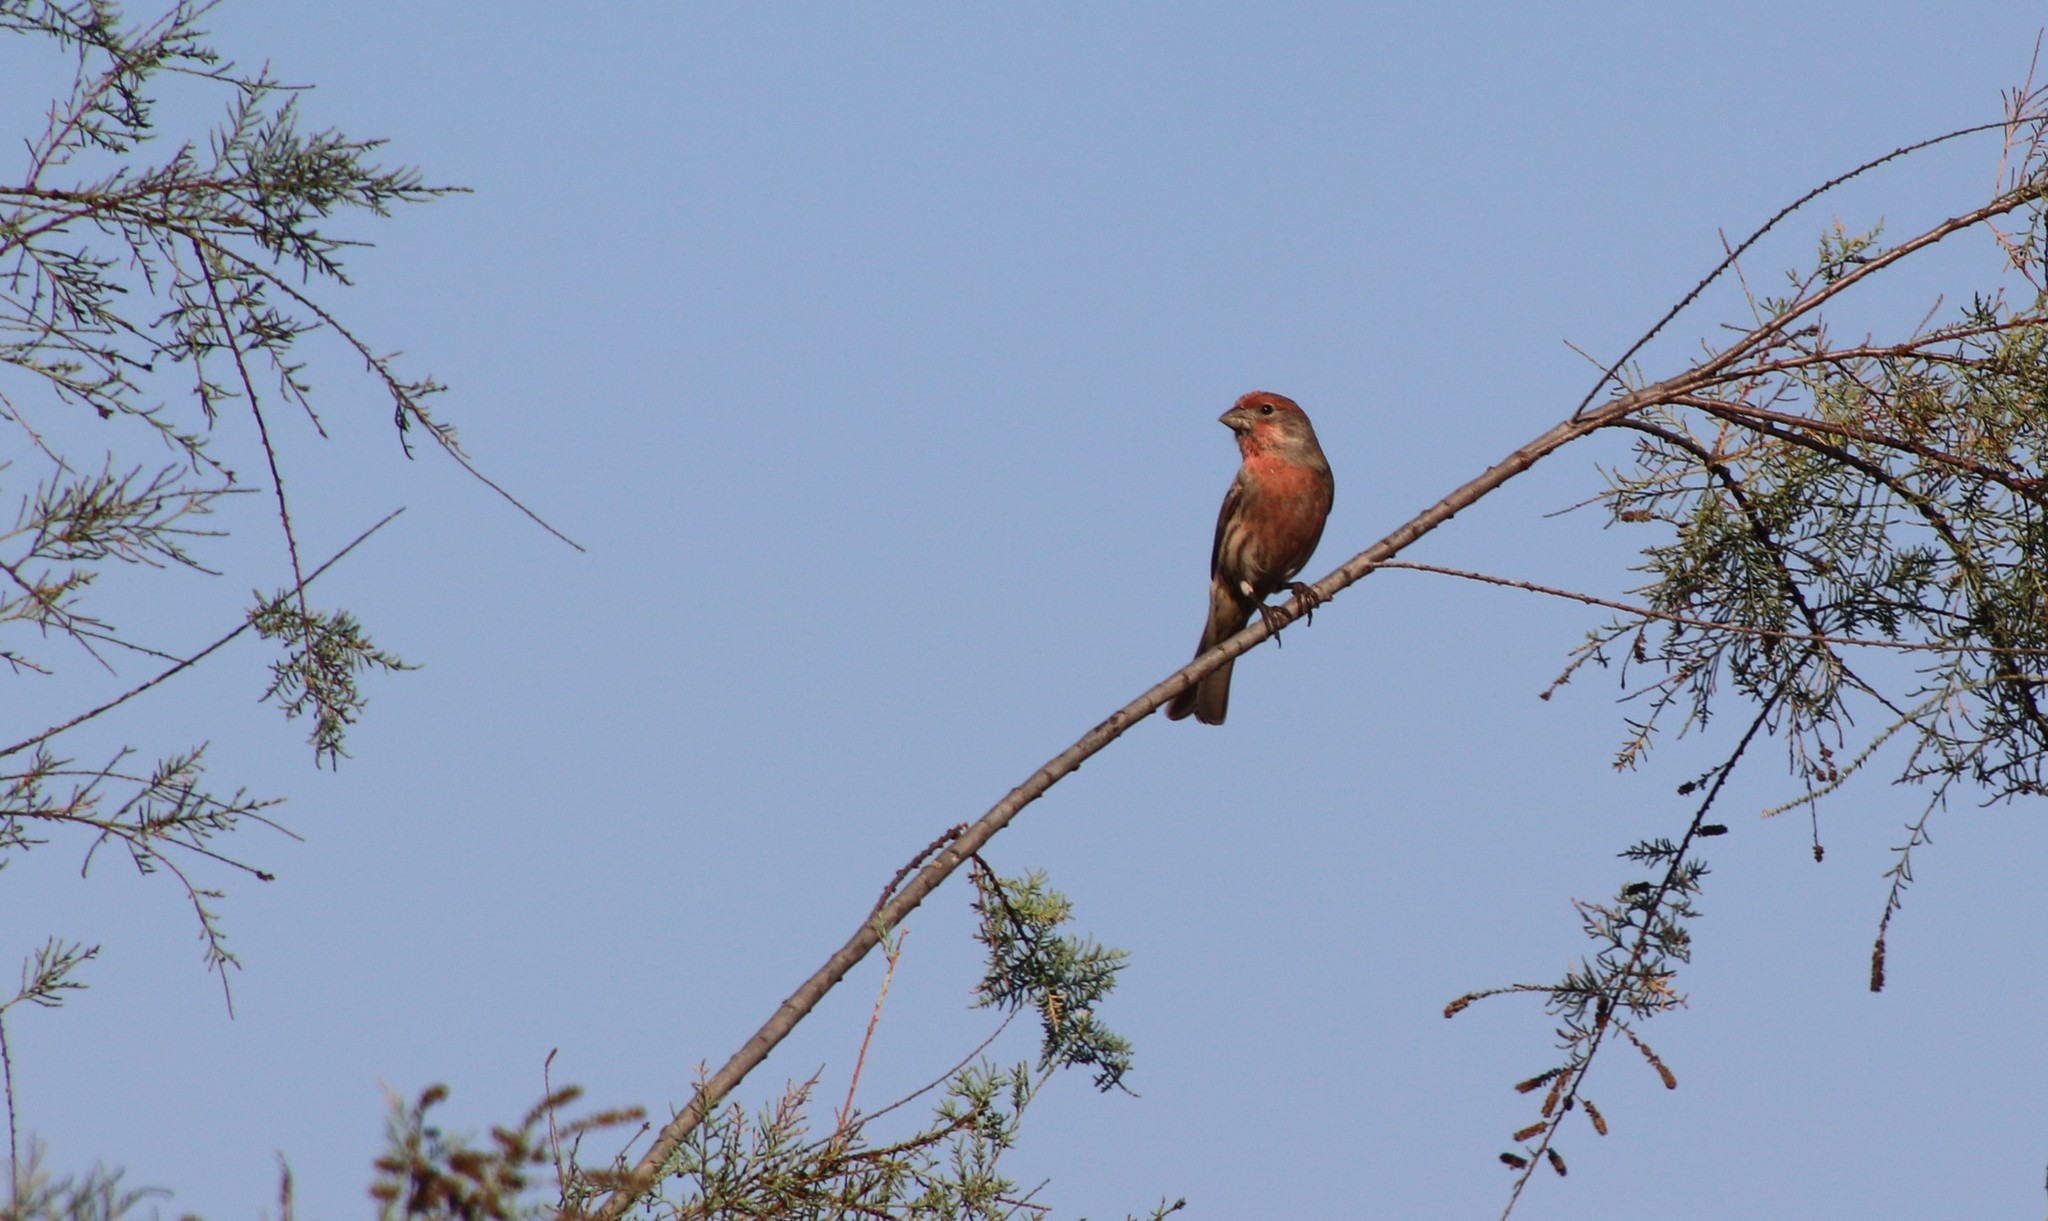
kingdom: Animalia
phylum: Chordata
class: Aves
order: Passeriformes
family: Fringillidae
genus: Haemorhous
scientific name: Haemorhous mexicanus
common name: House finch
